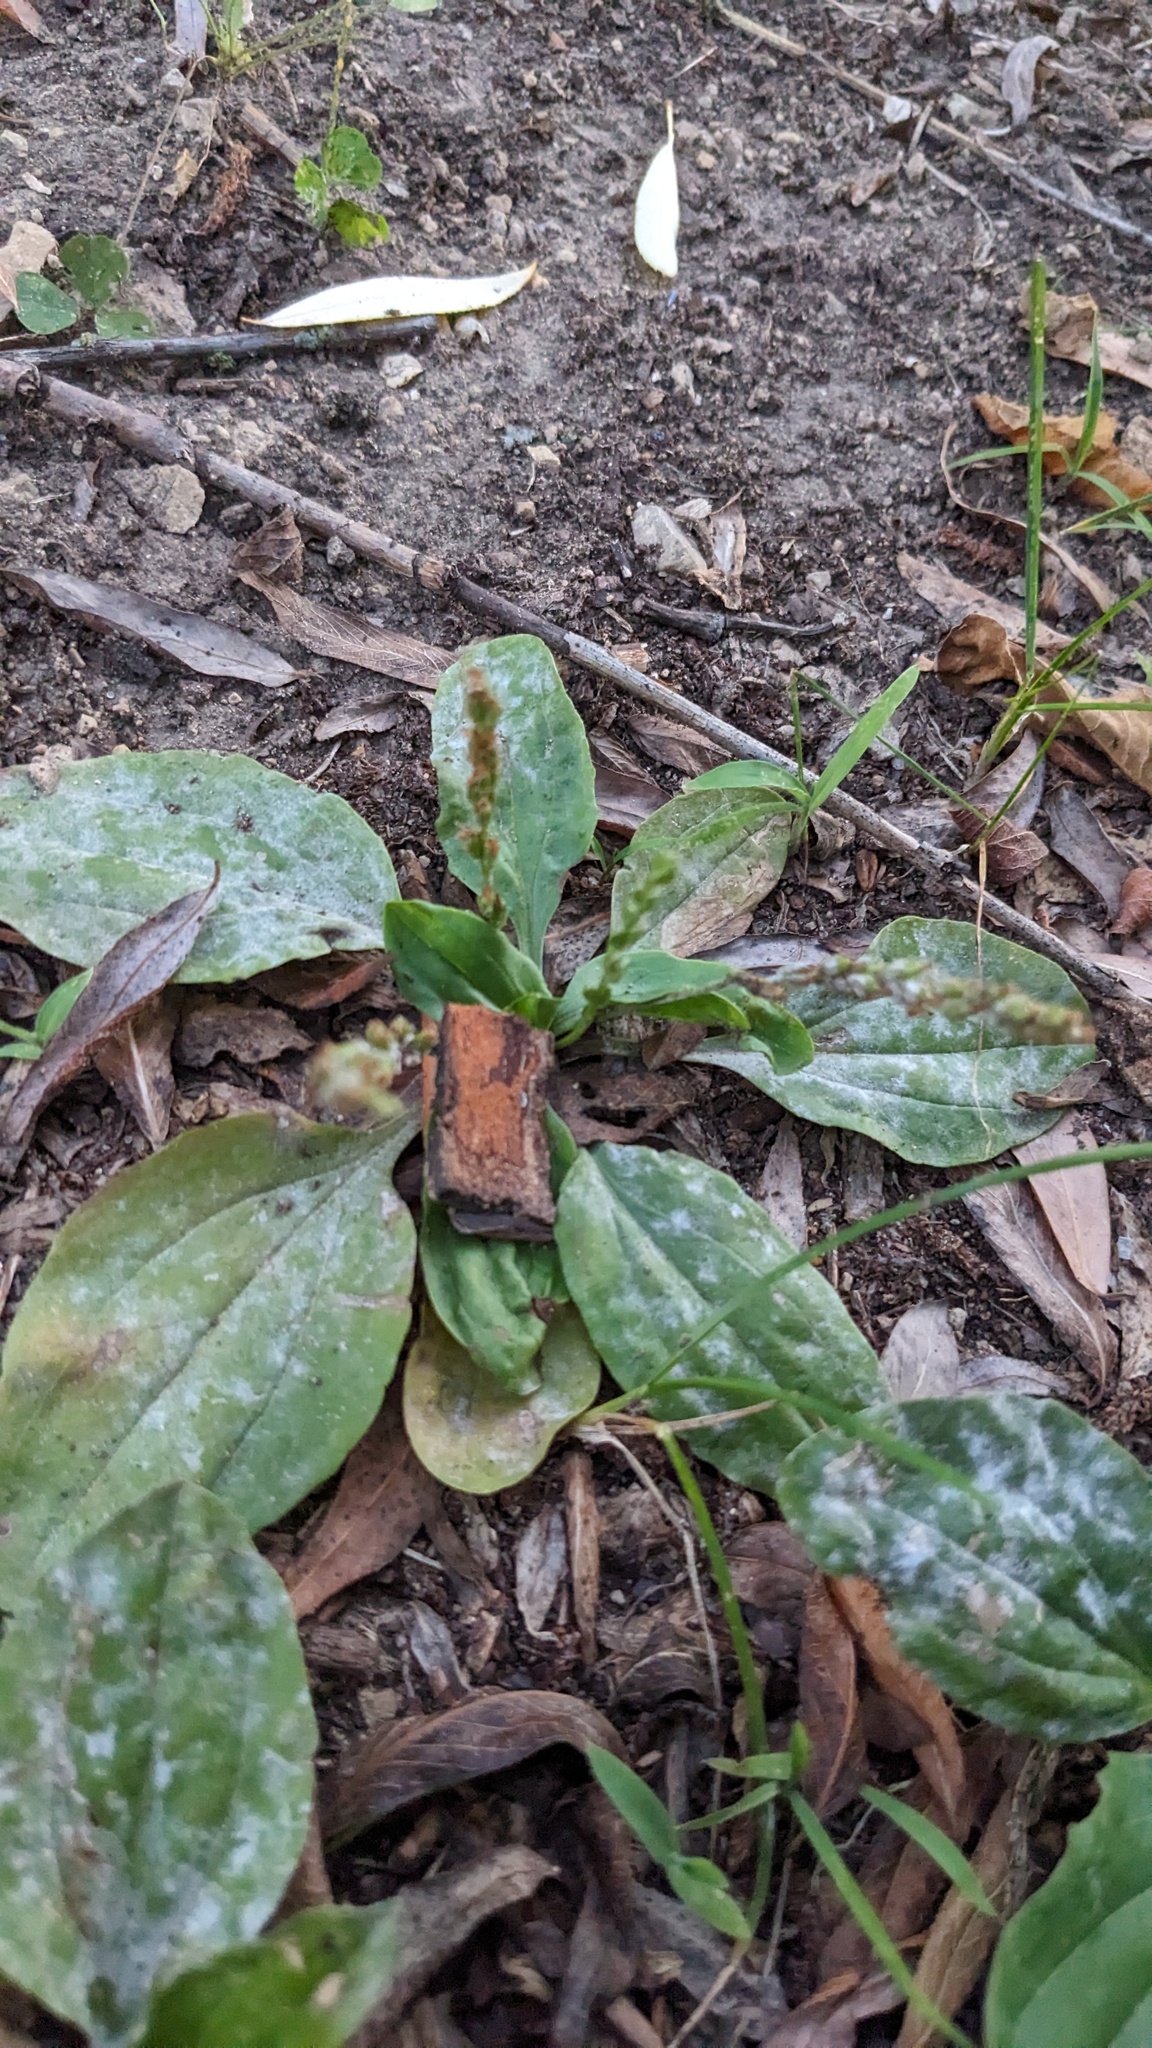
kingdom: Fungi
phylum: Ascomycota
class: Leotiomycetes
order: Helotiales
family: Erysiphaceae
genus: Golovinomyces
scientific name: Golovinomyces sordidus
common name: Plantain mildew
